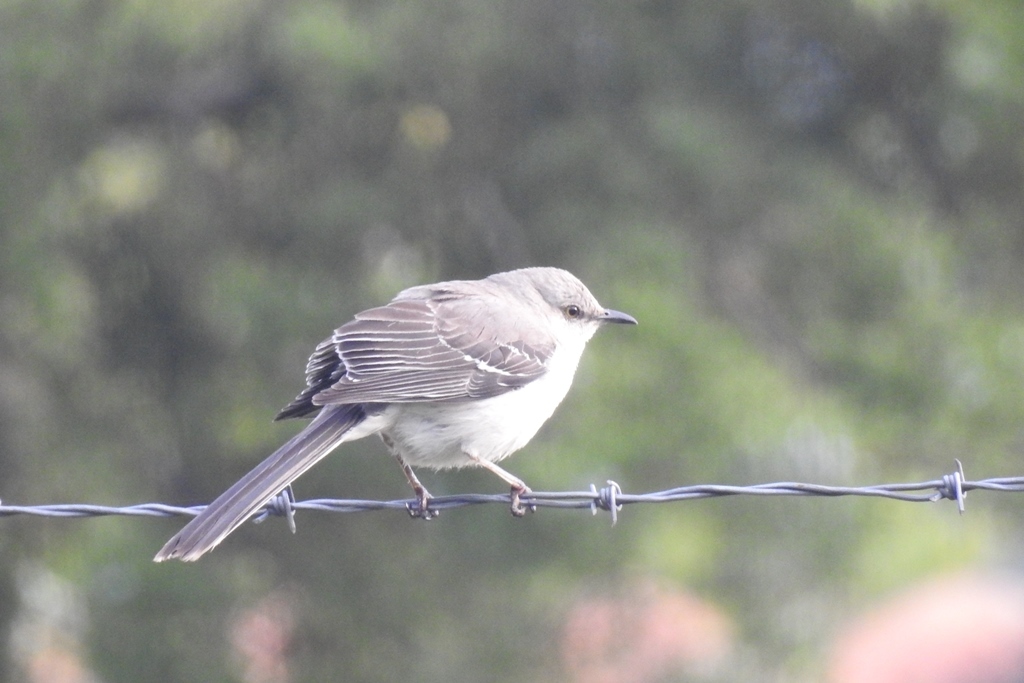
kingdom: Animalia
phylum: Chordata
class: Aves
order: Passeriformes
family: Mimidae
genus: Mimus
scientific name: Mimus gilvus
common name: Tropical mockingbird
